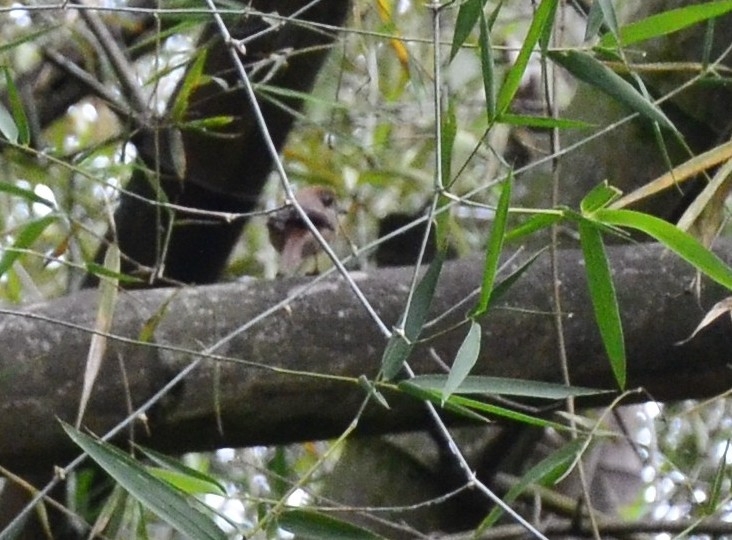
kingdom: Animalia
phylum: Chordata
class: Aves
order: Passeriformes
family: Laniidae
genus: Lanius
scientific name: Lanius cristatus
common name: Brown shrike
